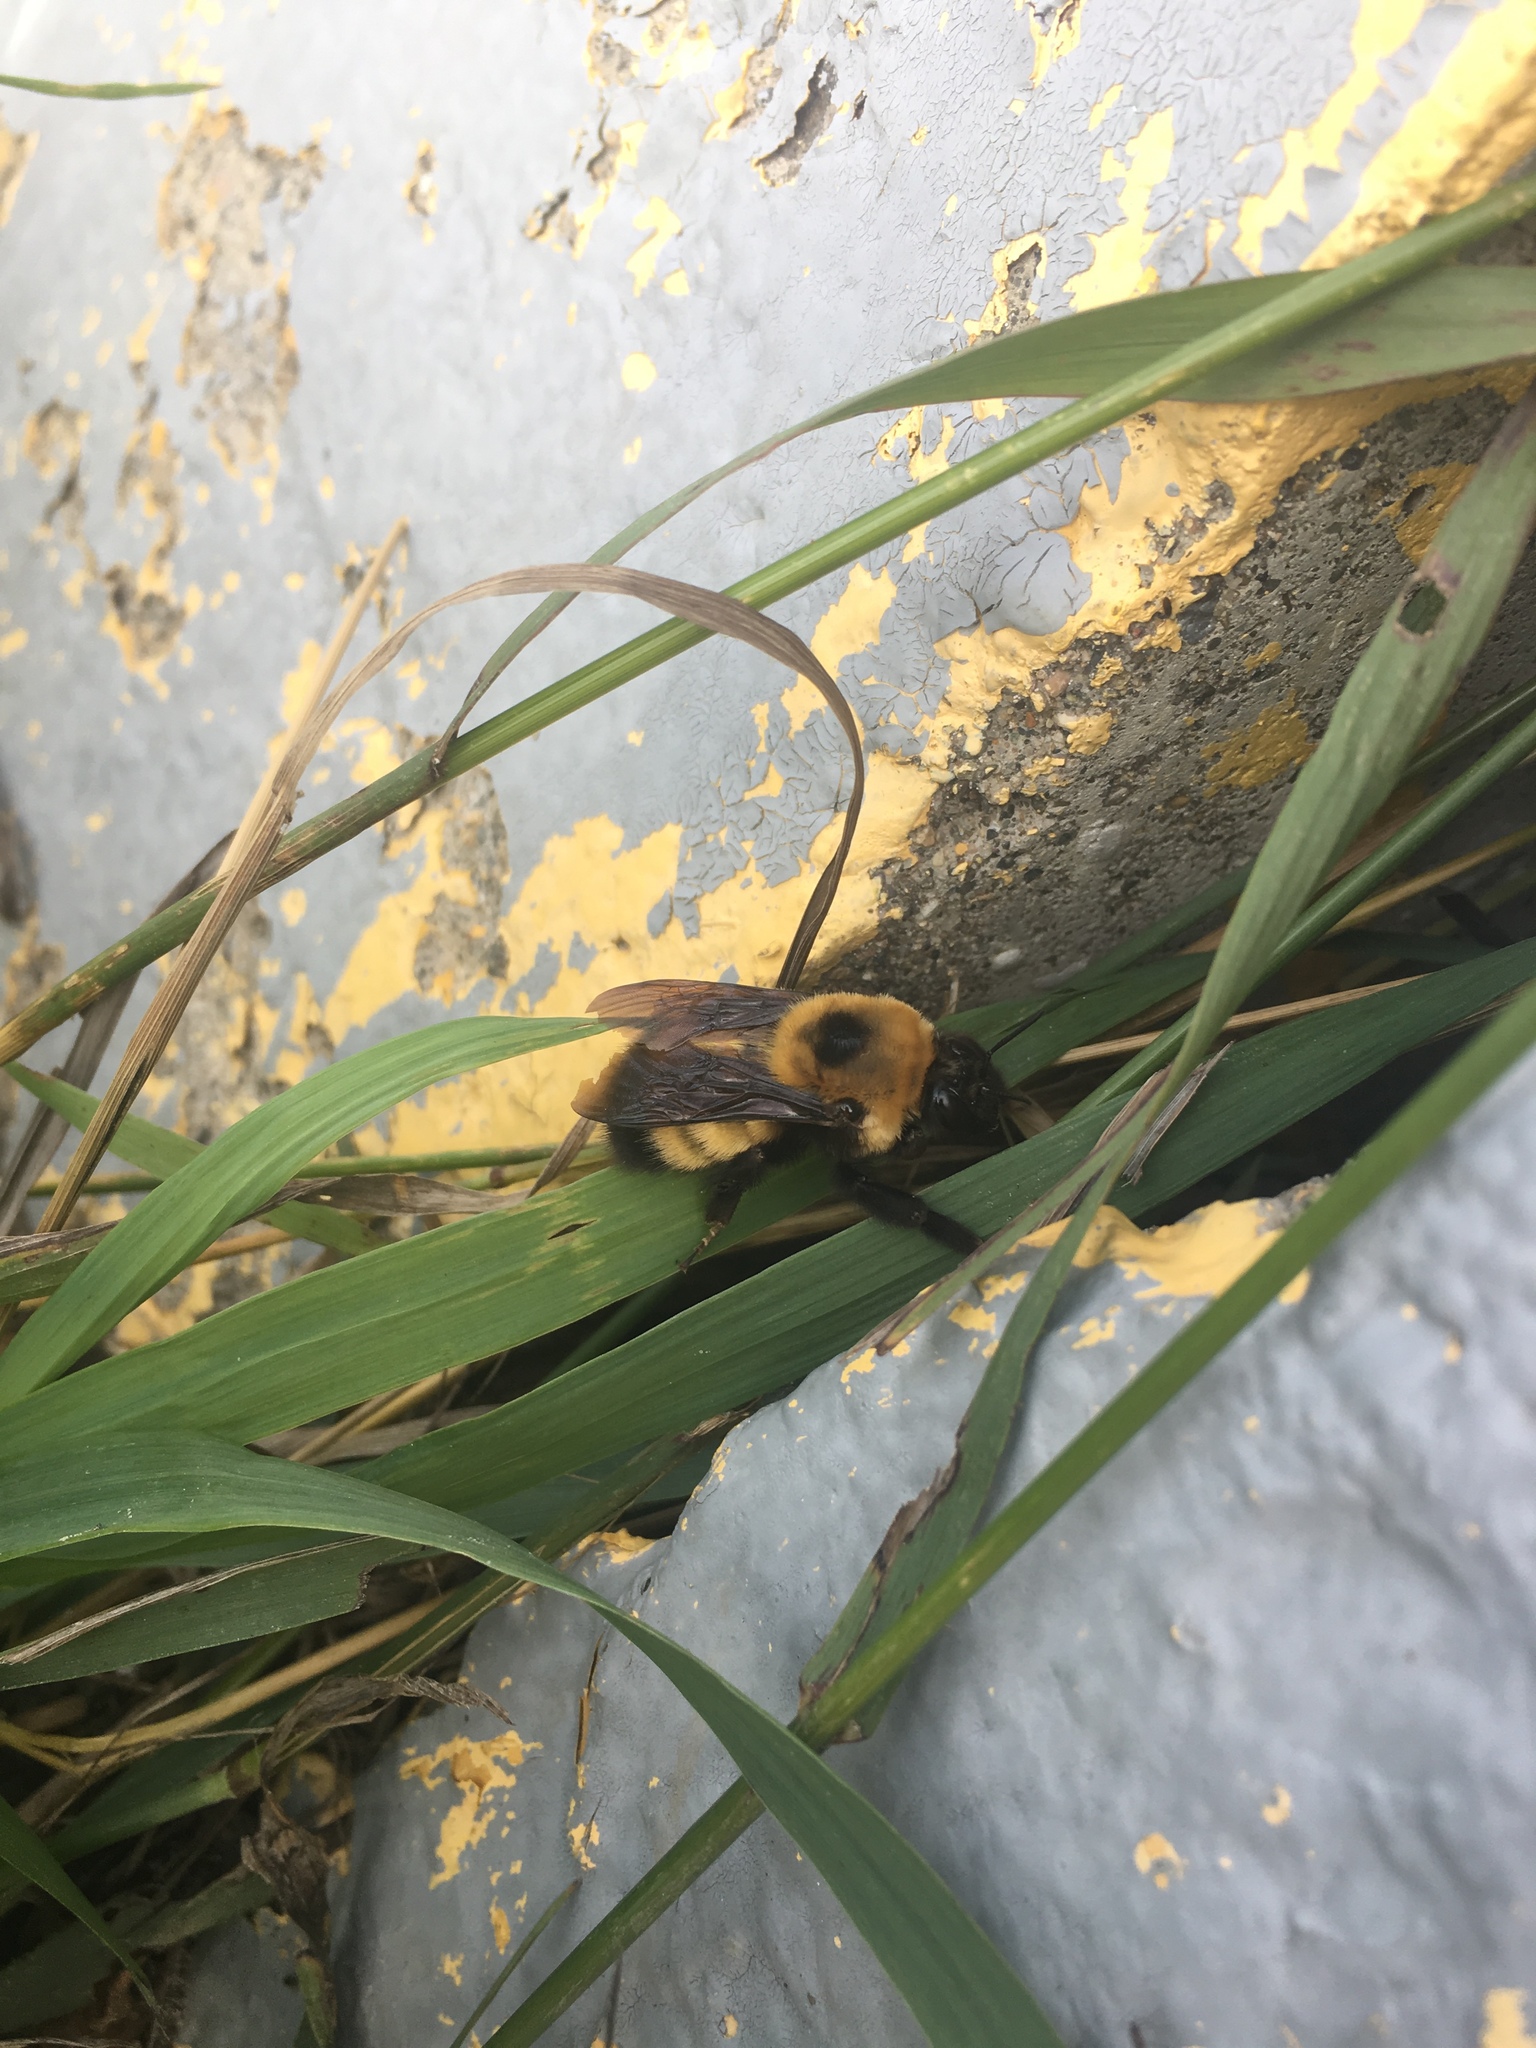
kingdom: Animalia
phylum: Arthropoda
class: Insecta
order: Hymenoptera
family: Apidae
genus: Bombus
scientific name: Bombus nevadensis
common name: Nevada bumble bee
